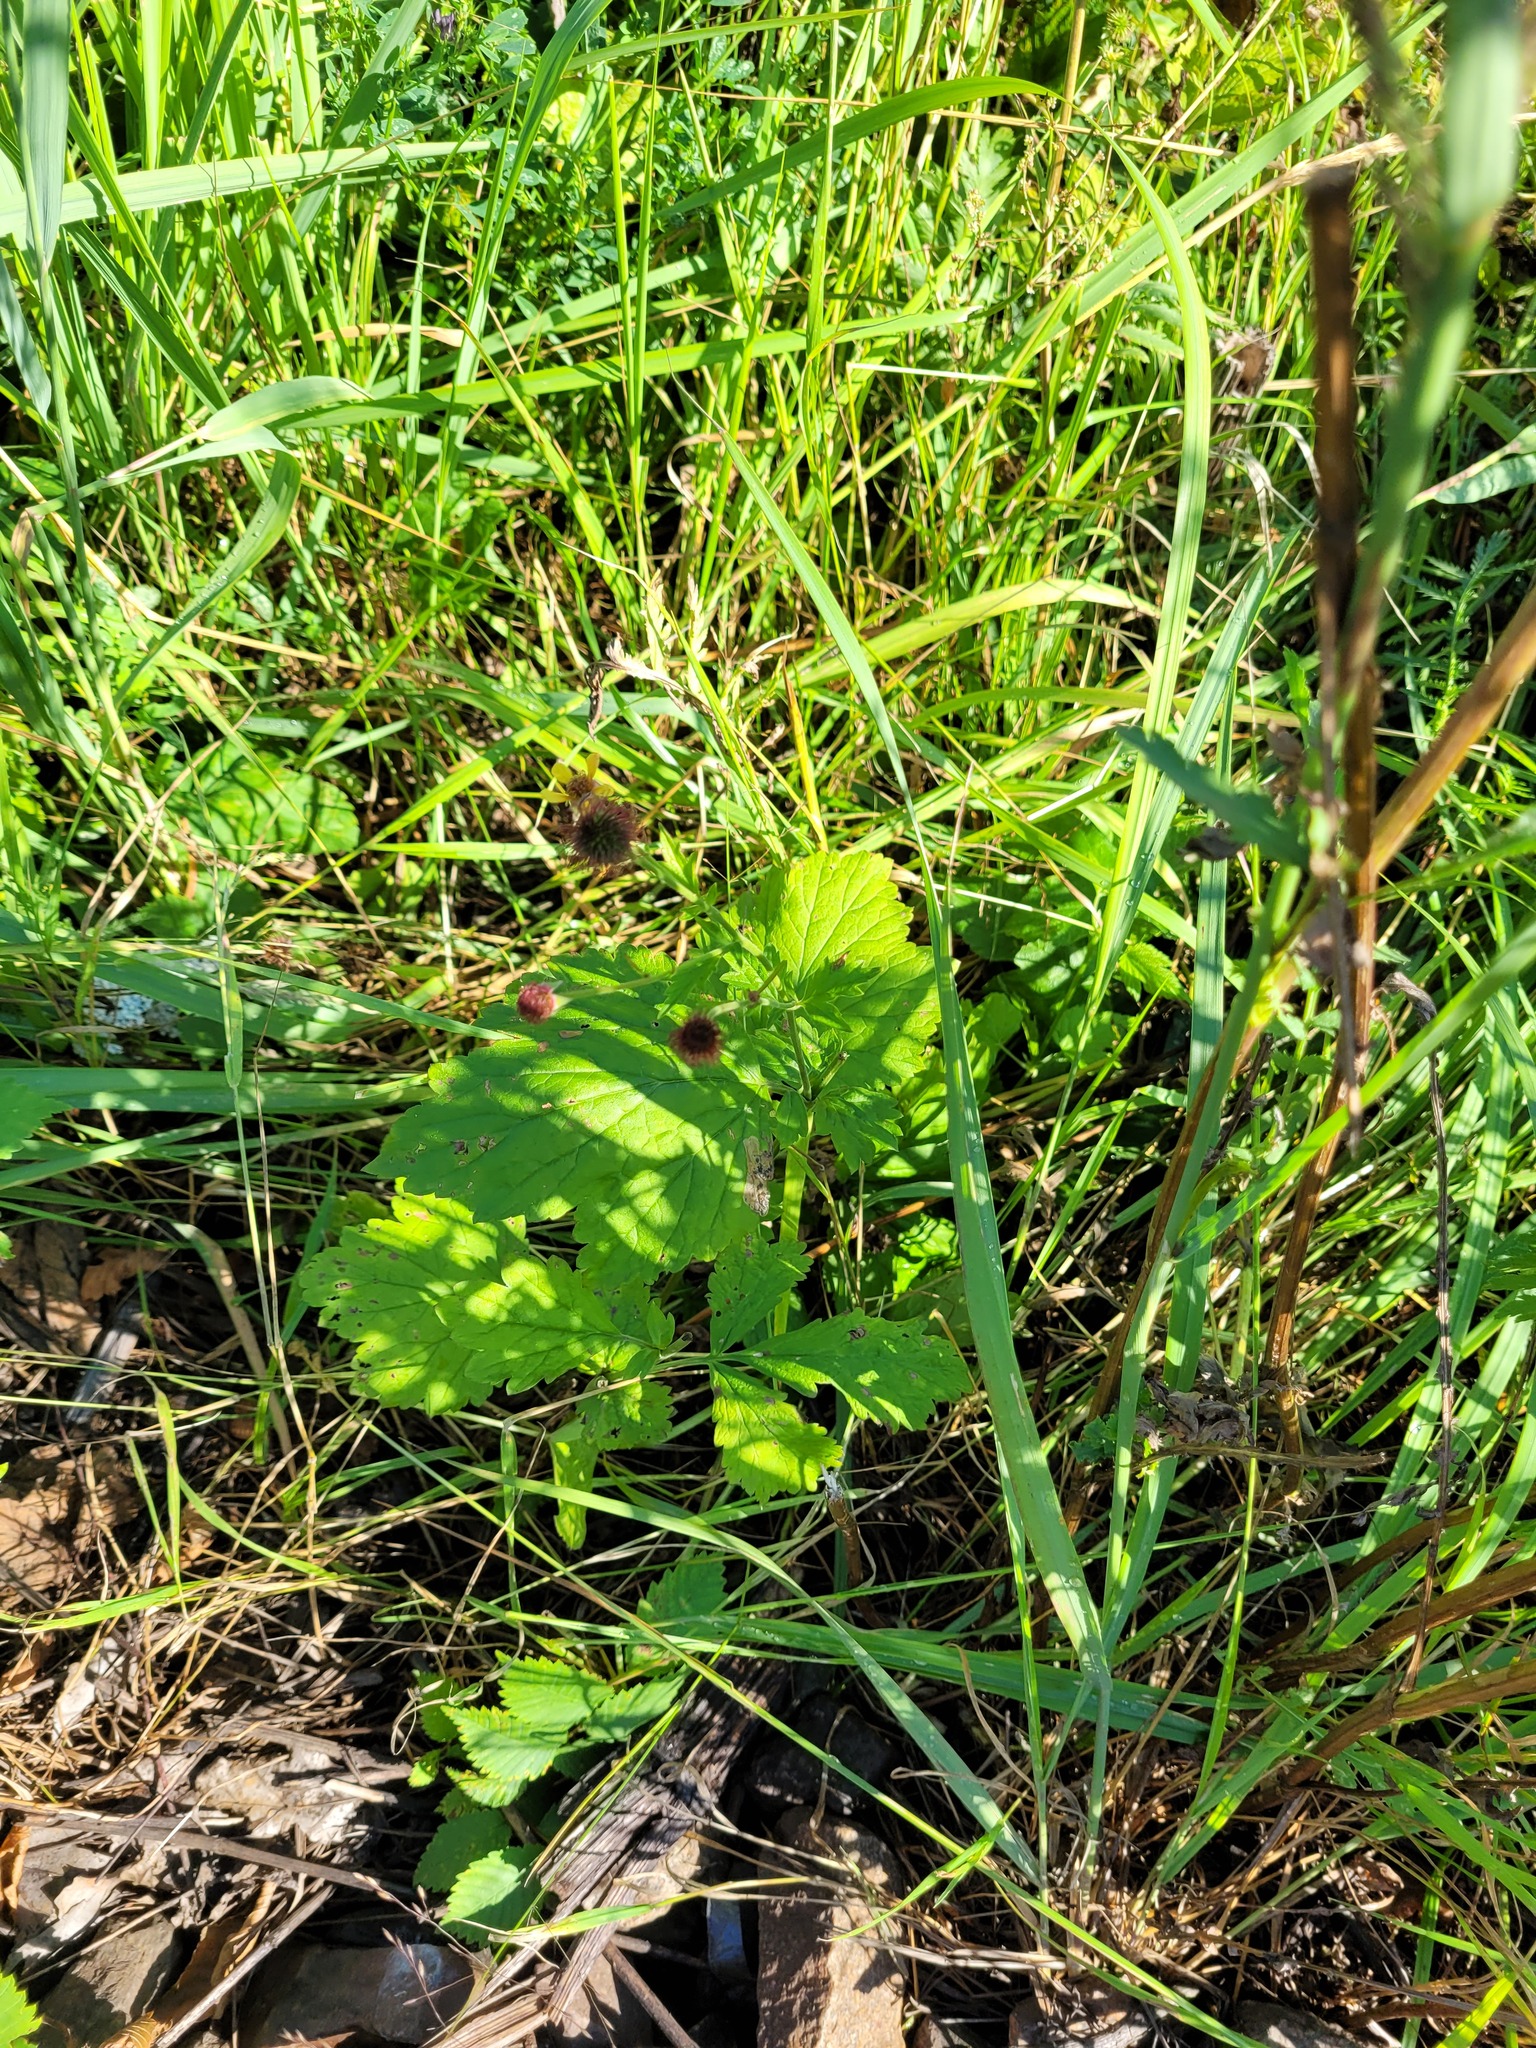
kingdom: Plantae
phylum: Tracheophyta
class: Magnoliopsida
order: Rosales
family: Rosaceae
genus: Geum
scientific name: Geum urbanum
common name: Wood avens
